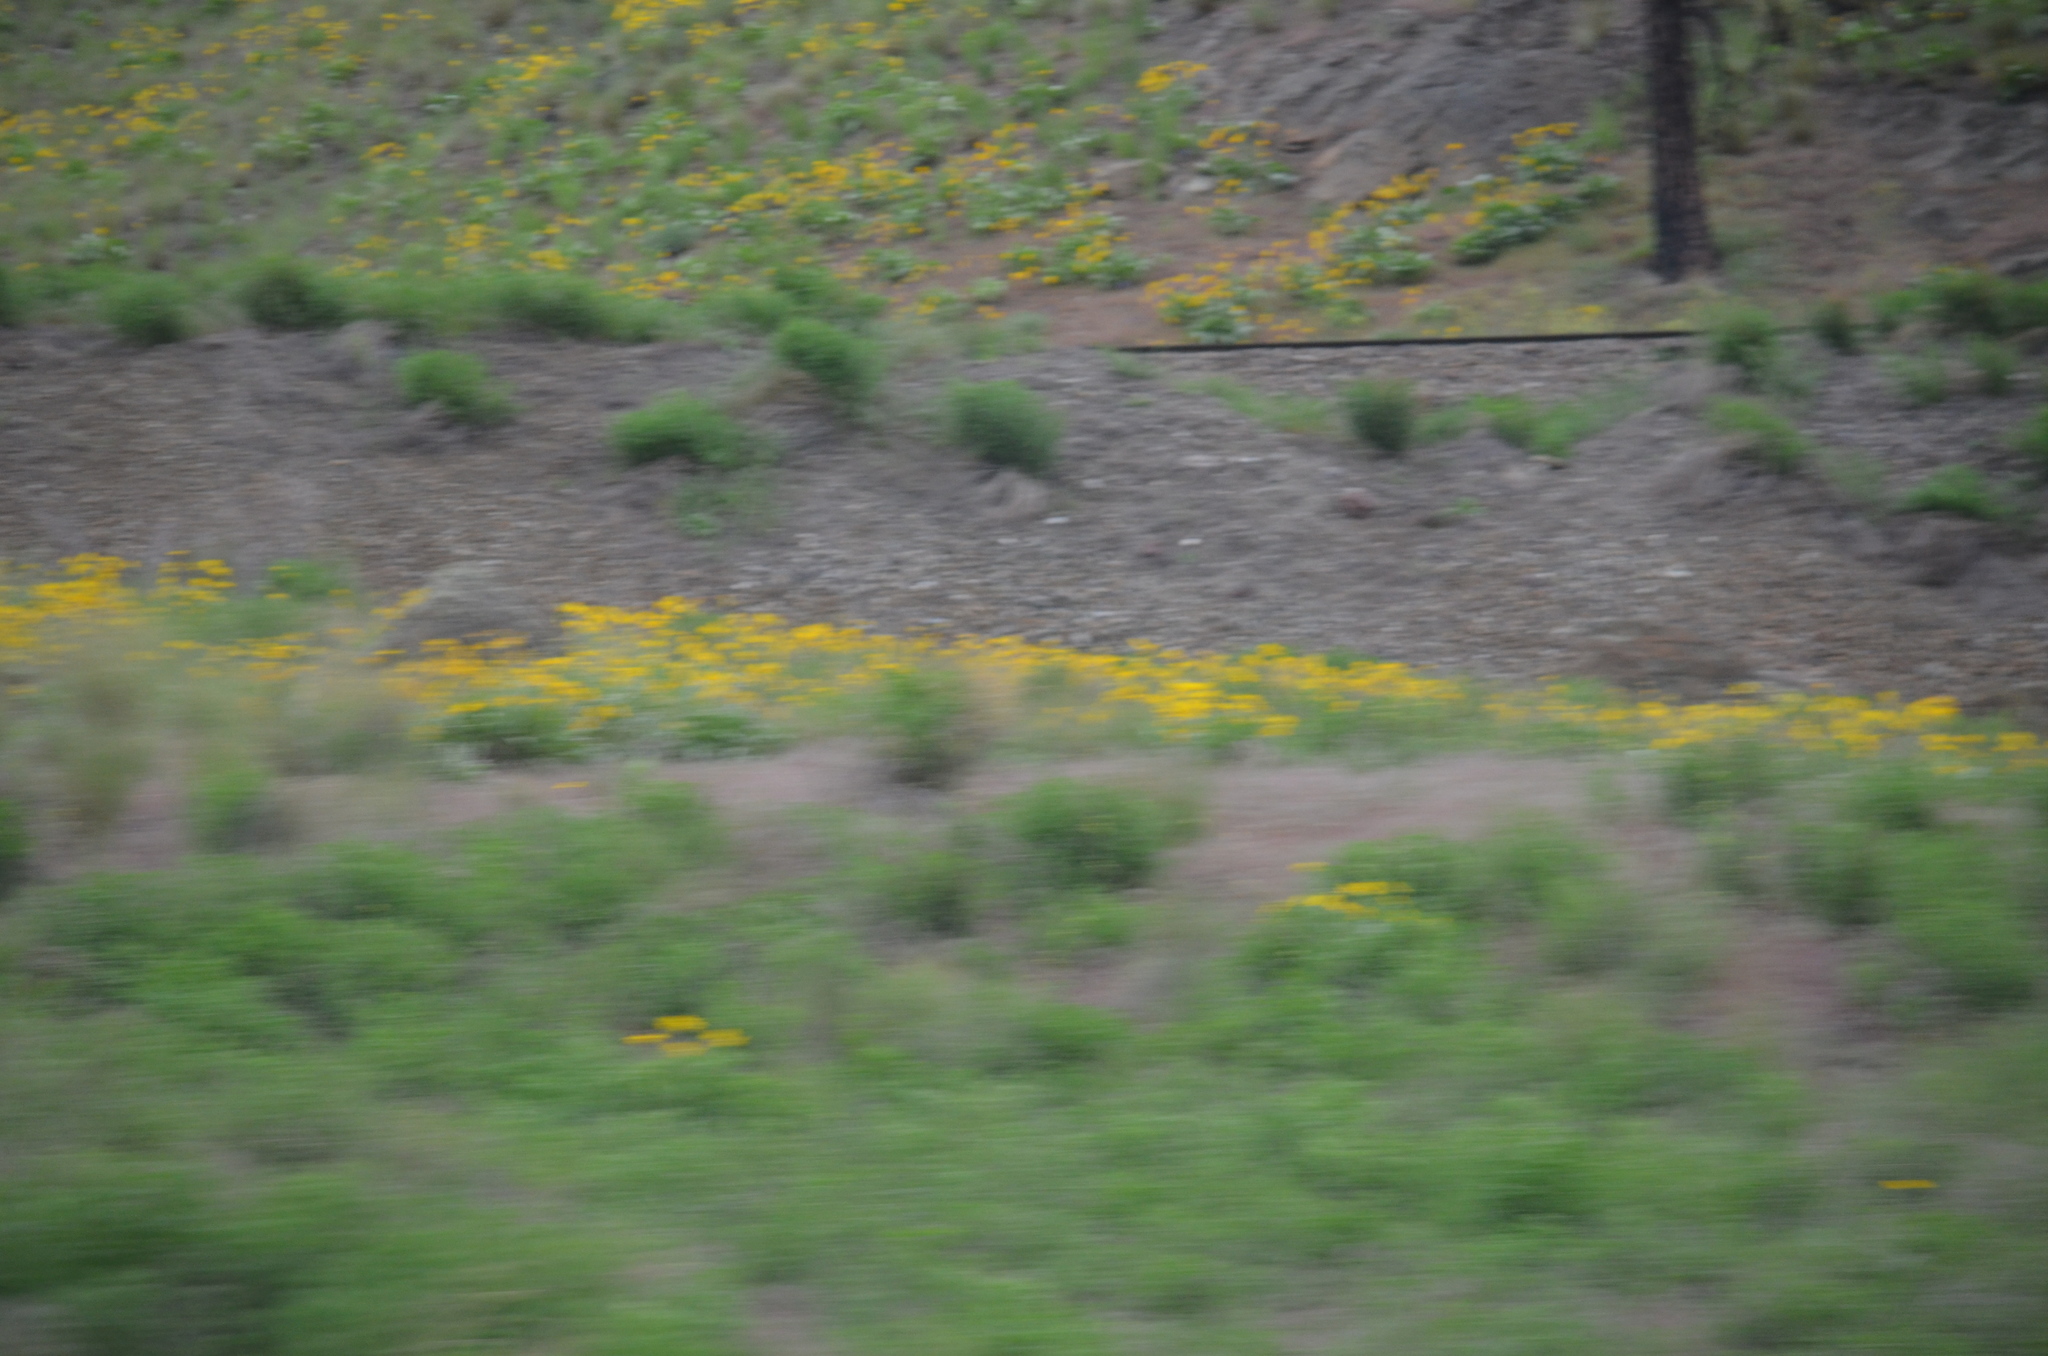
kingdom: Plantae
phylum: Tracheophyta
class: Magnoliopsida
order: Asterales
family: Asteraceae
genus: Wyethia
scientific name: Wyethia sagittata
